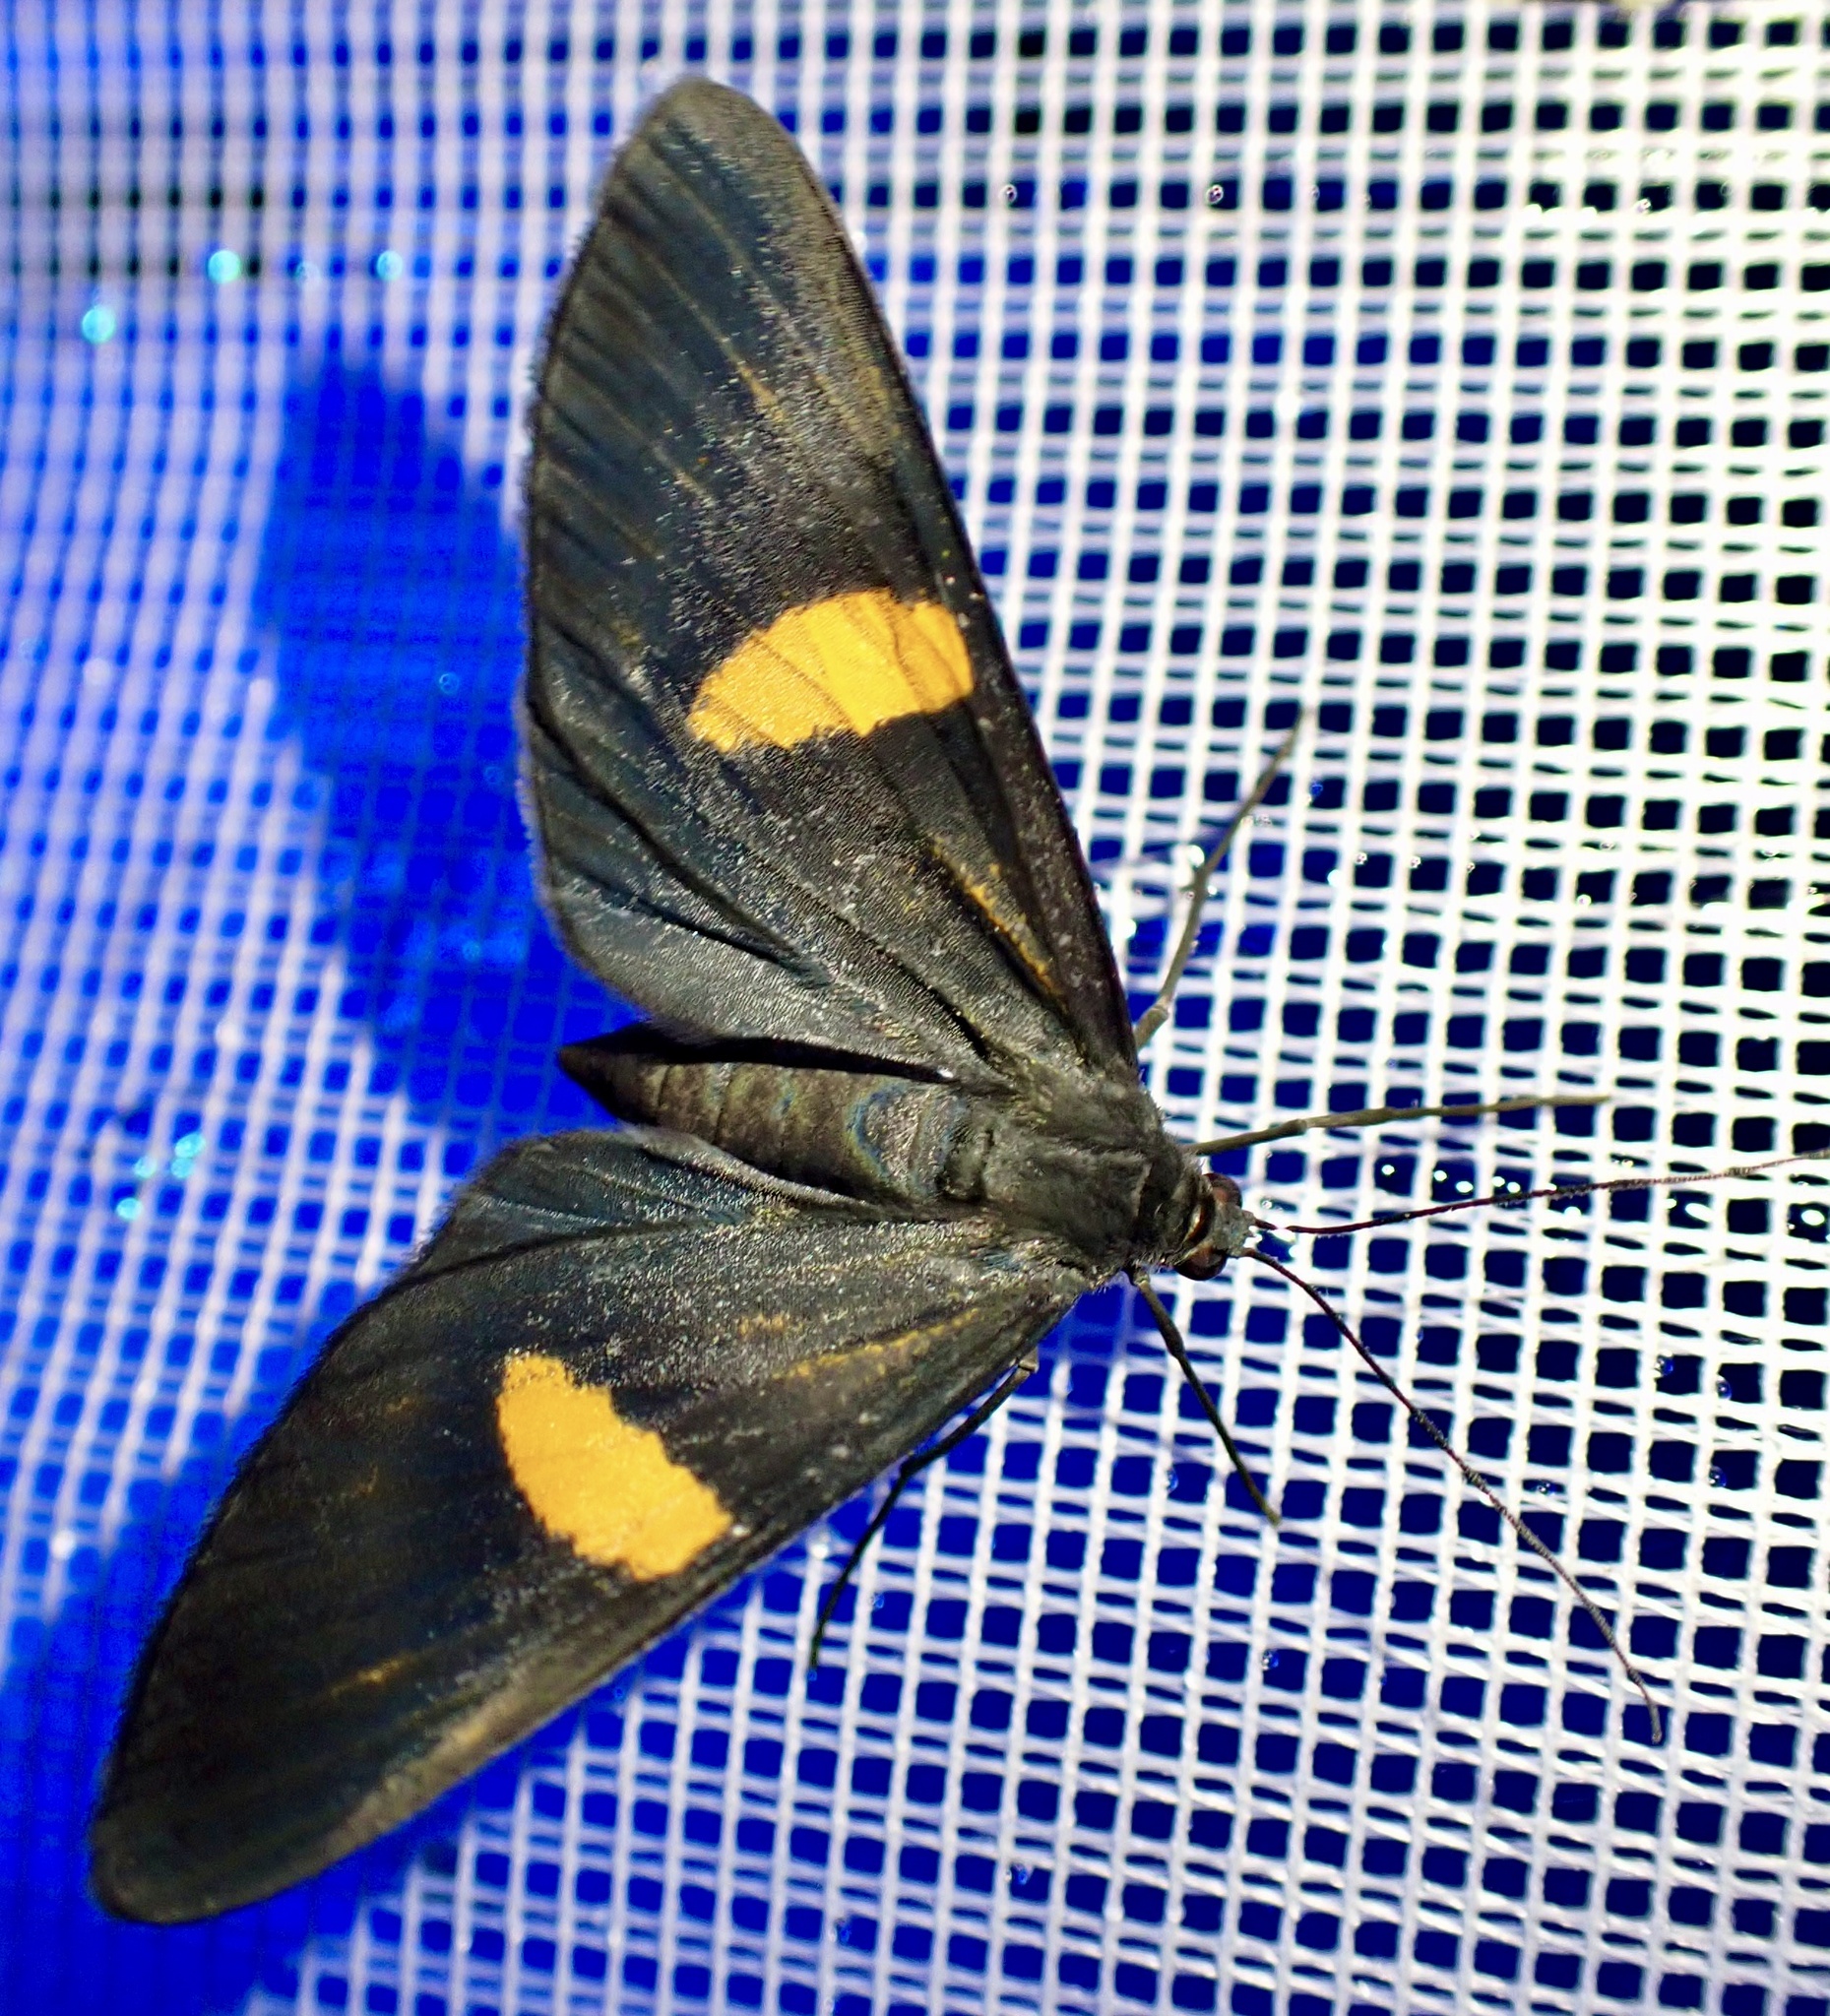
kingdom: Animalia
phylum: Arthropoda
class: Insecta
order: Lepidoptera
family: Geometridae
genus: Craspedosis
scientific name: Craspedosis aurigutta
